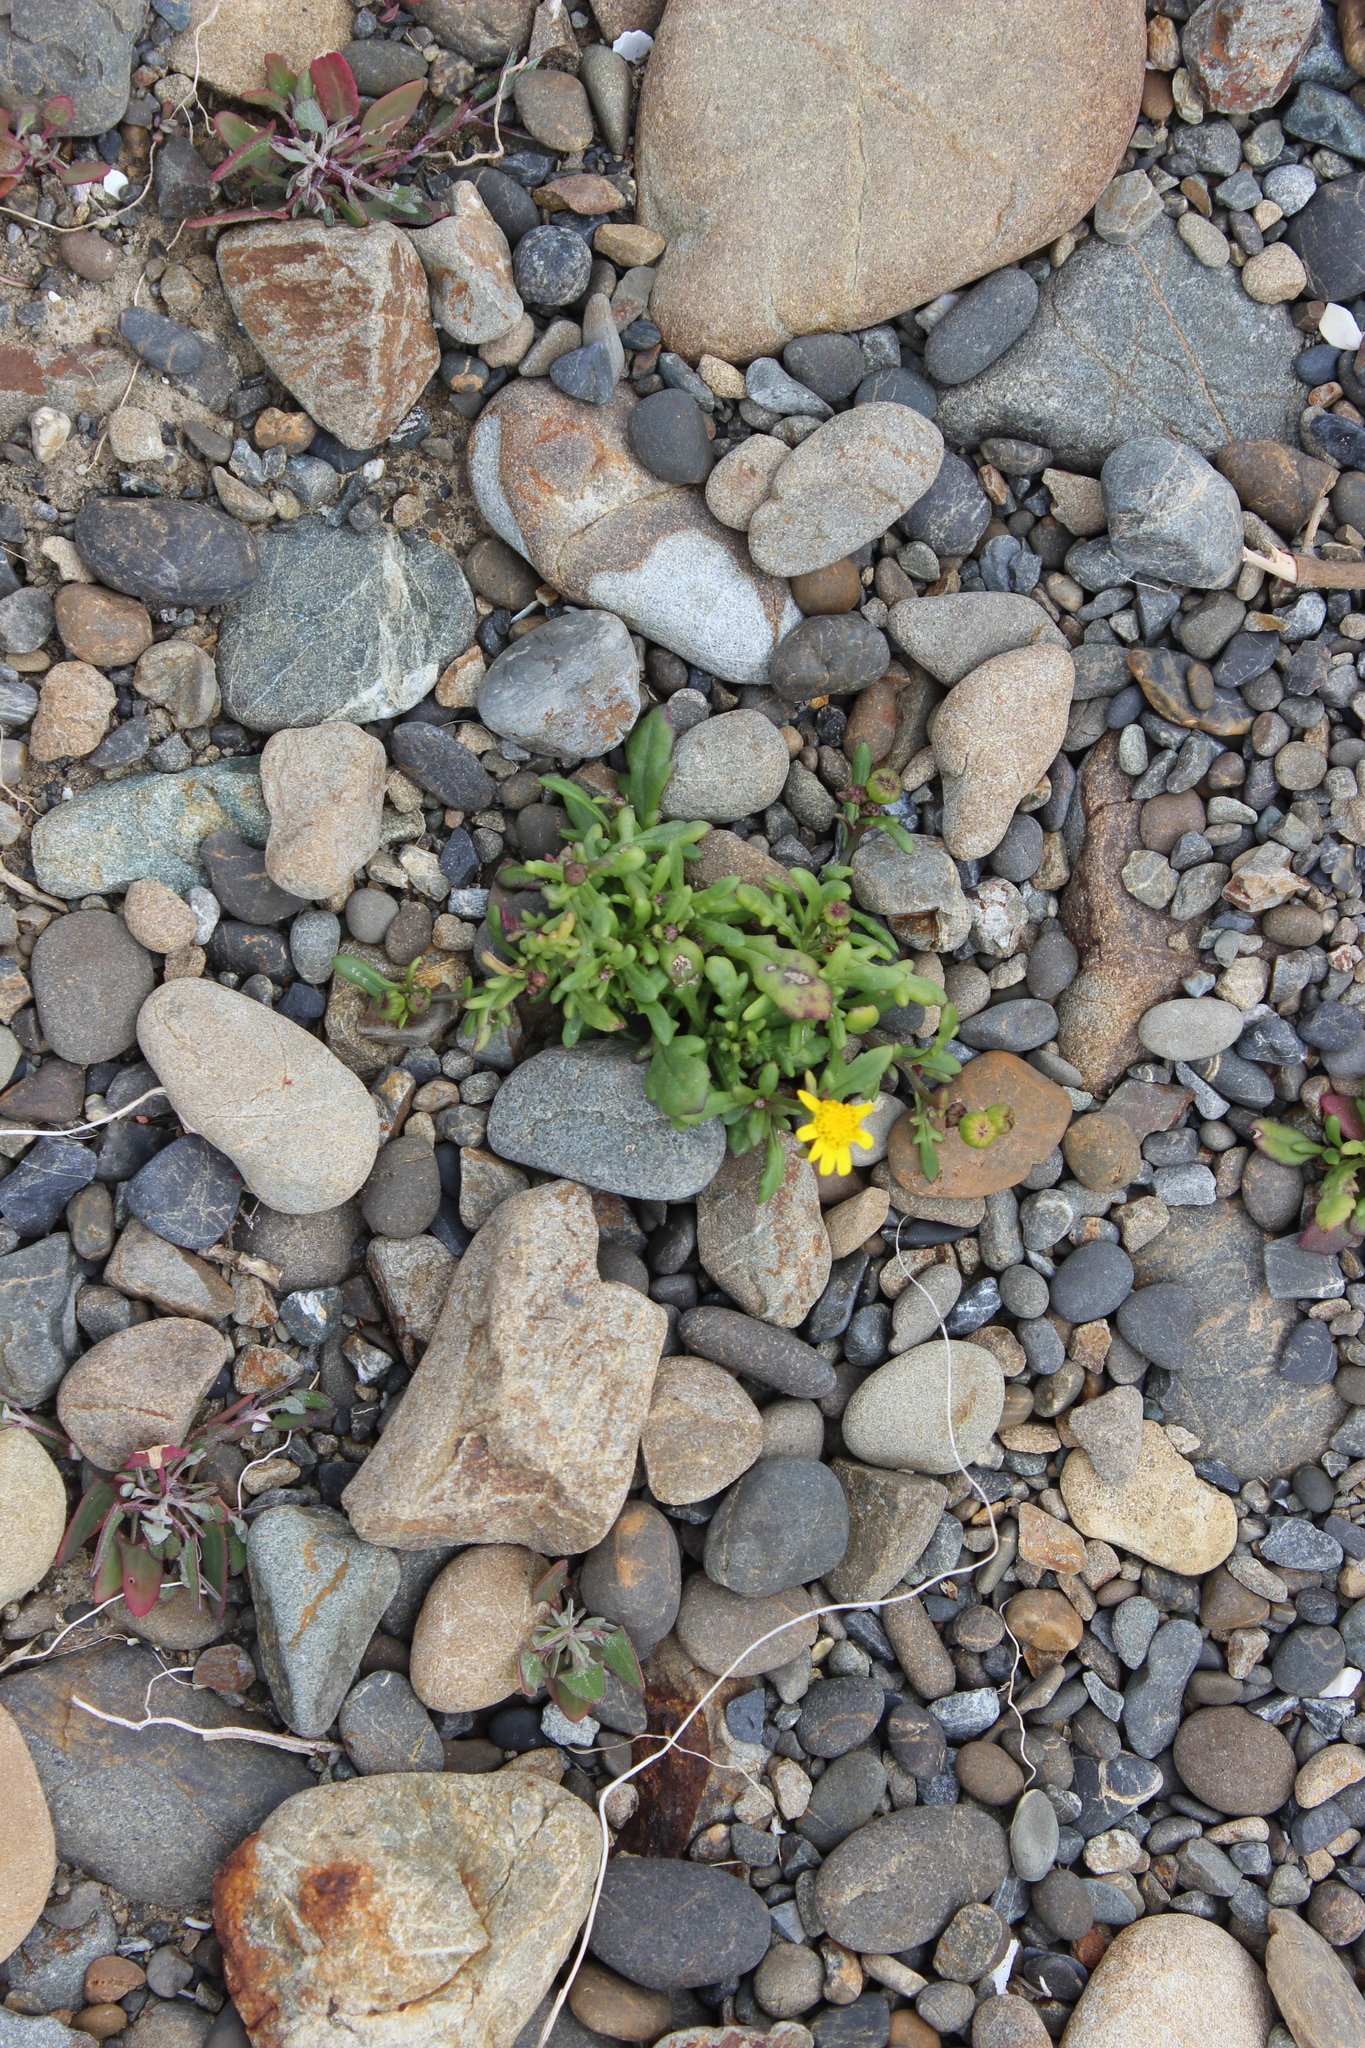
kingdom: Plantae
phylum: Tracheophyta
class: Magnoliopsida
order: Asterales
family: Asteraceae
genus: Senecio
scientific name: Senecio lautus
